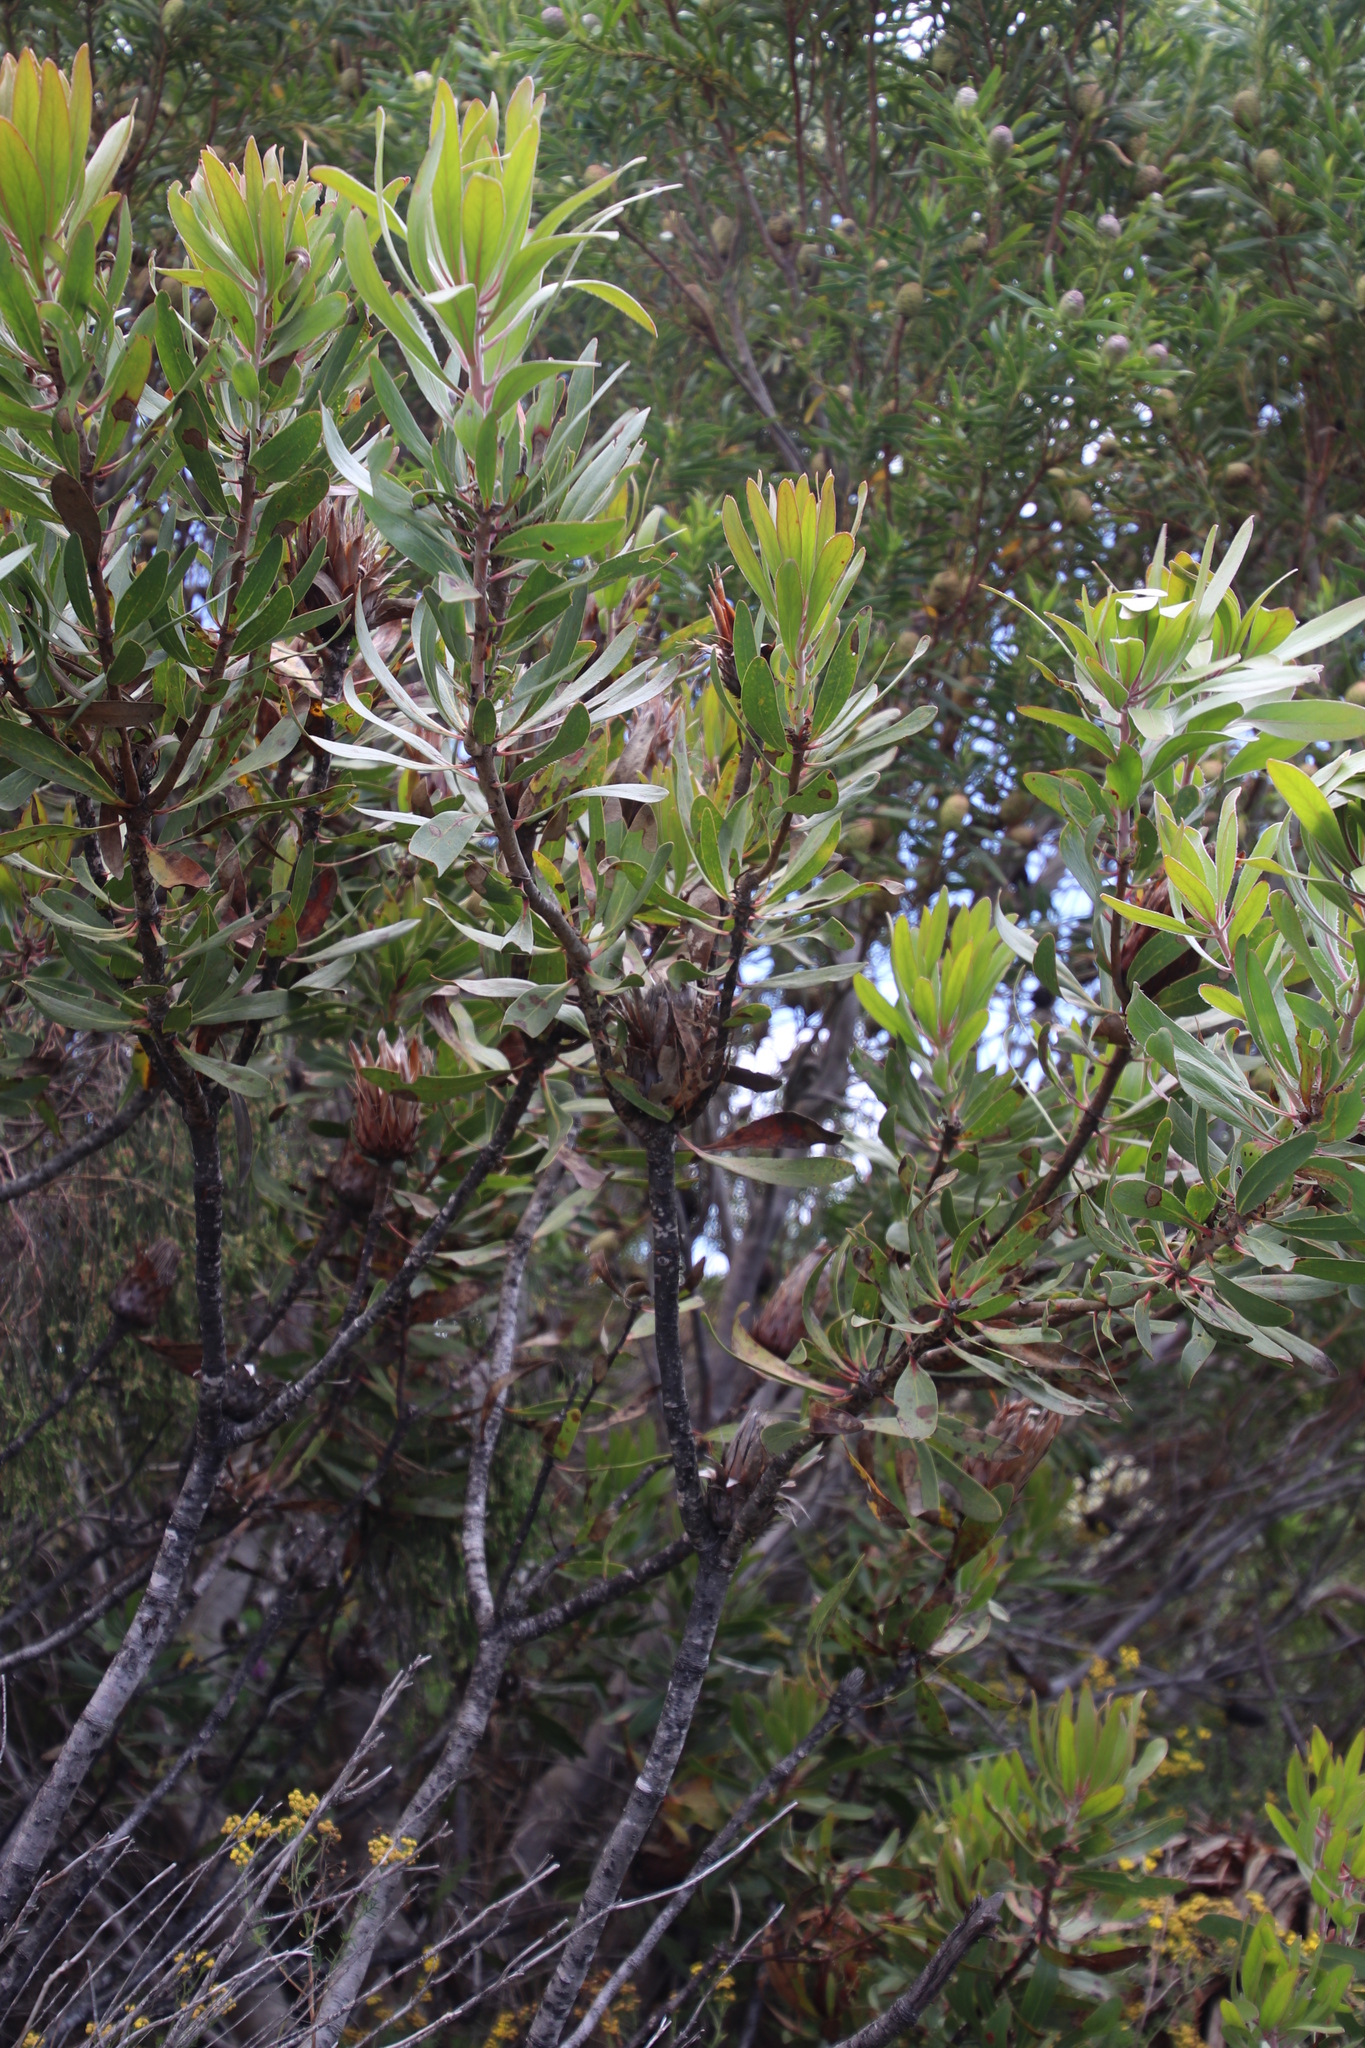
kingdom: Plantae
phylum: Tracheophyta
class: Magnoliopsida
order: Proteales
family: Proteaceae
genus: Protea
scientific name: Protea obtusifolia
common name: Bredasdorp sugarbush
